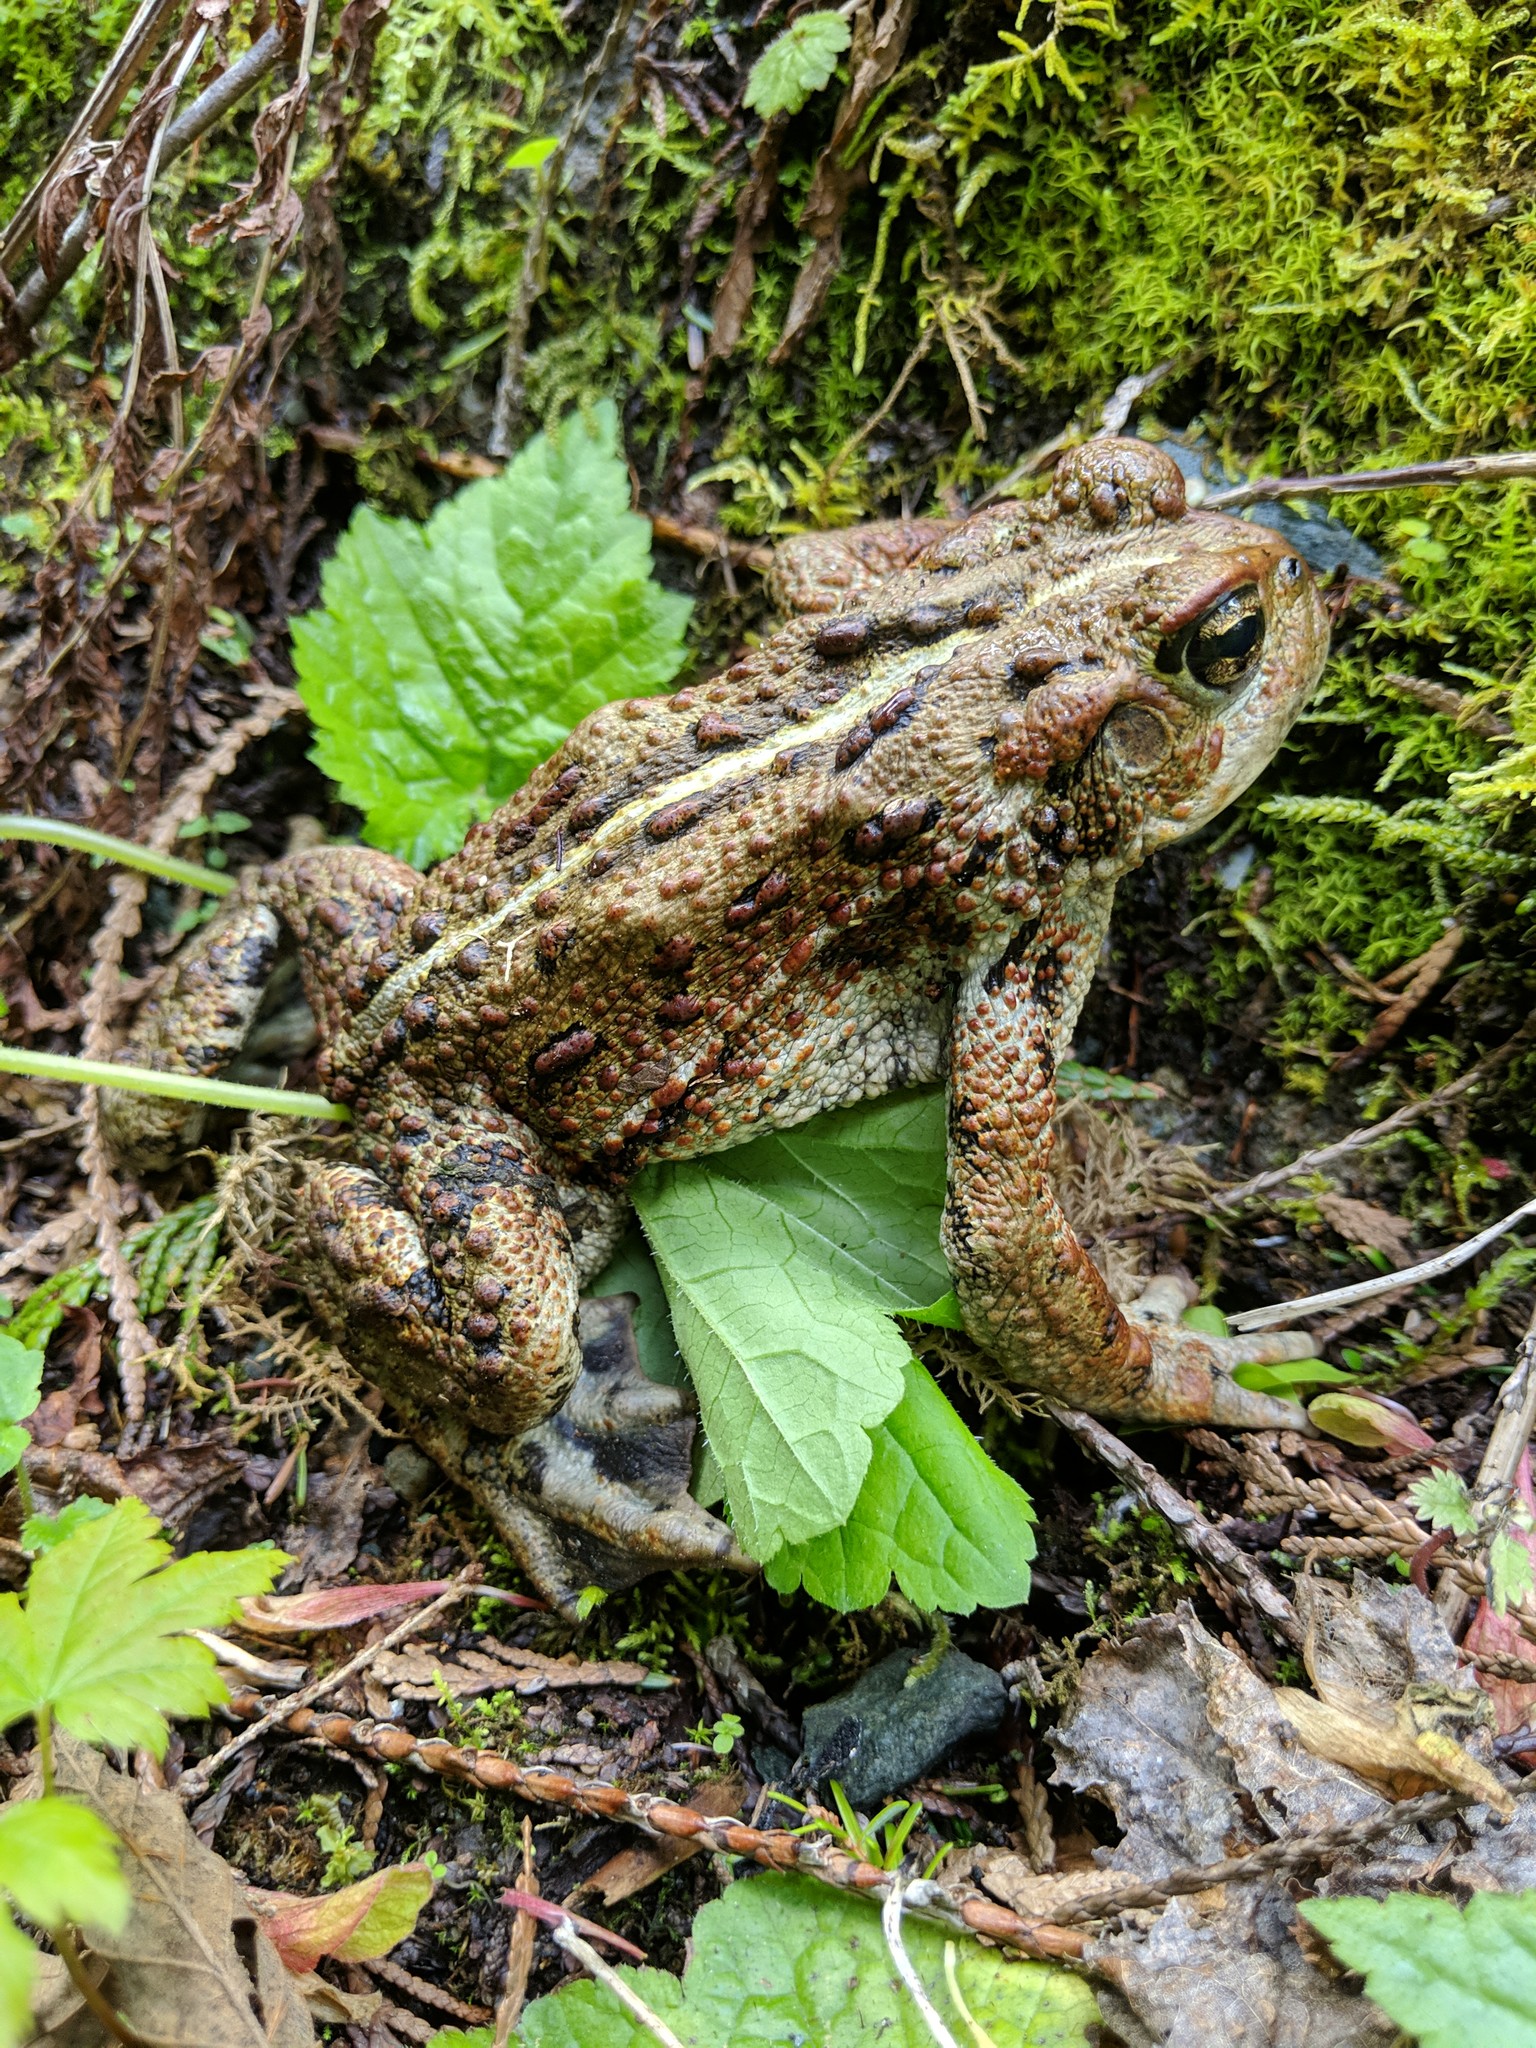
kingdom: Animalia
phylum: Chordata
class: Amphibia
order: Anura
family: Bufonidae
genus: Anaxyrus
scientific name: Anaxyrus boreas
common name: Western toad
